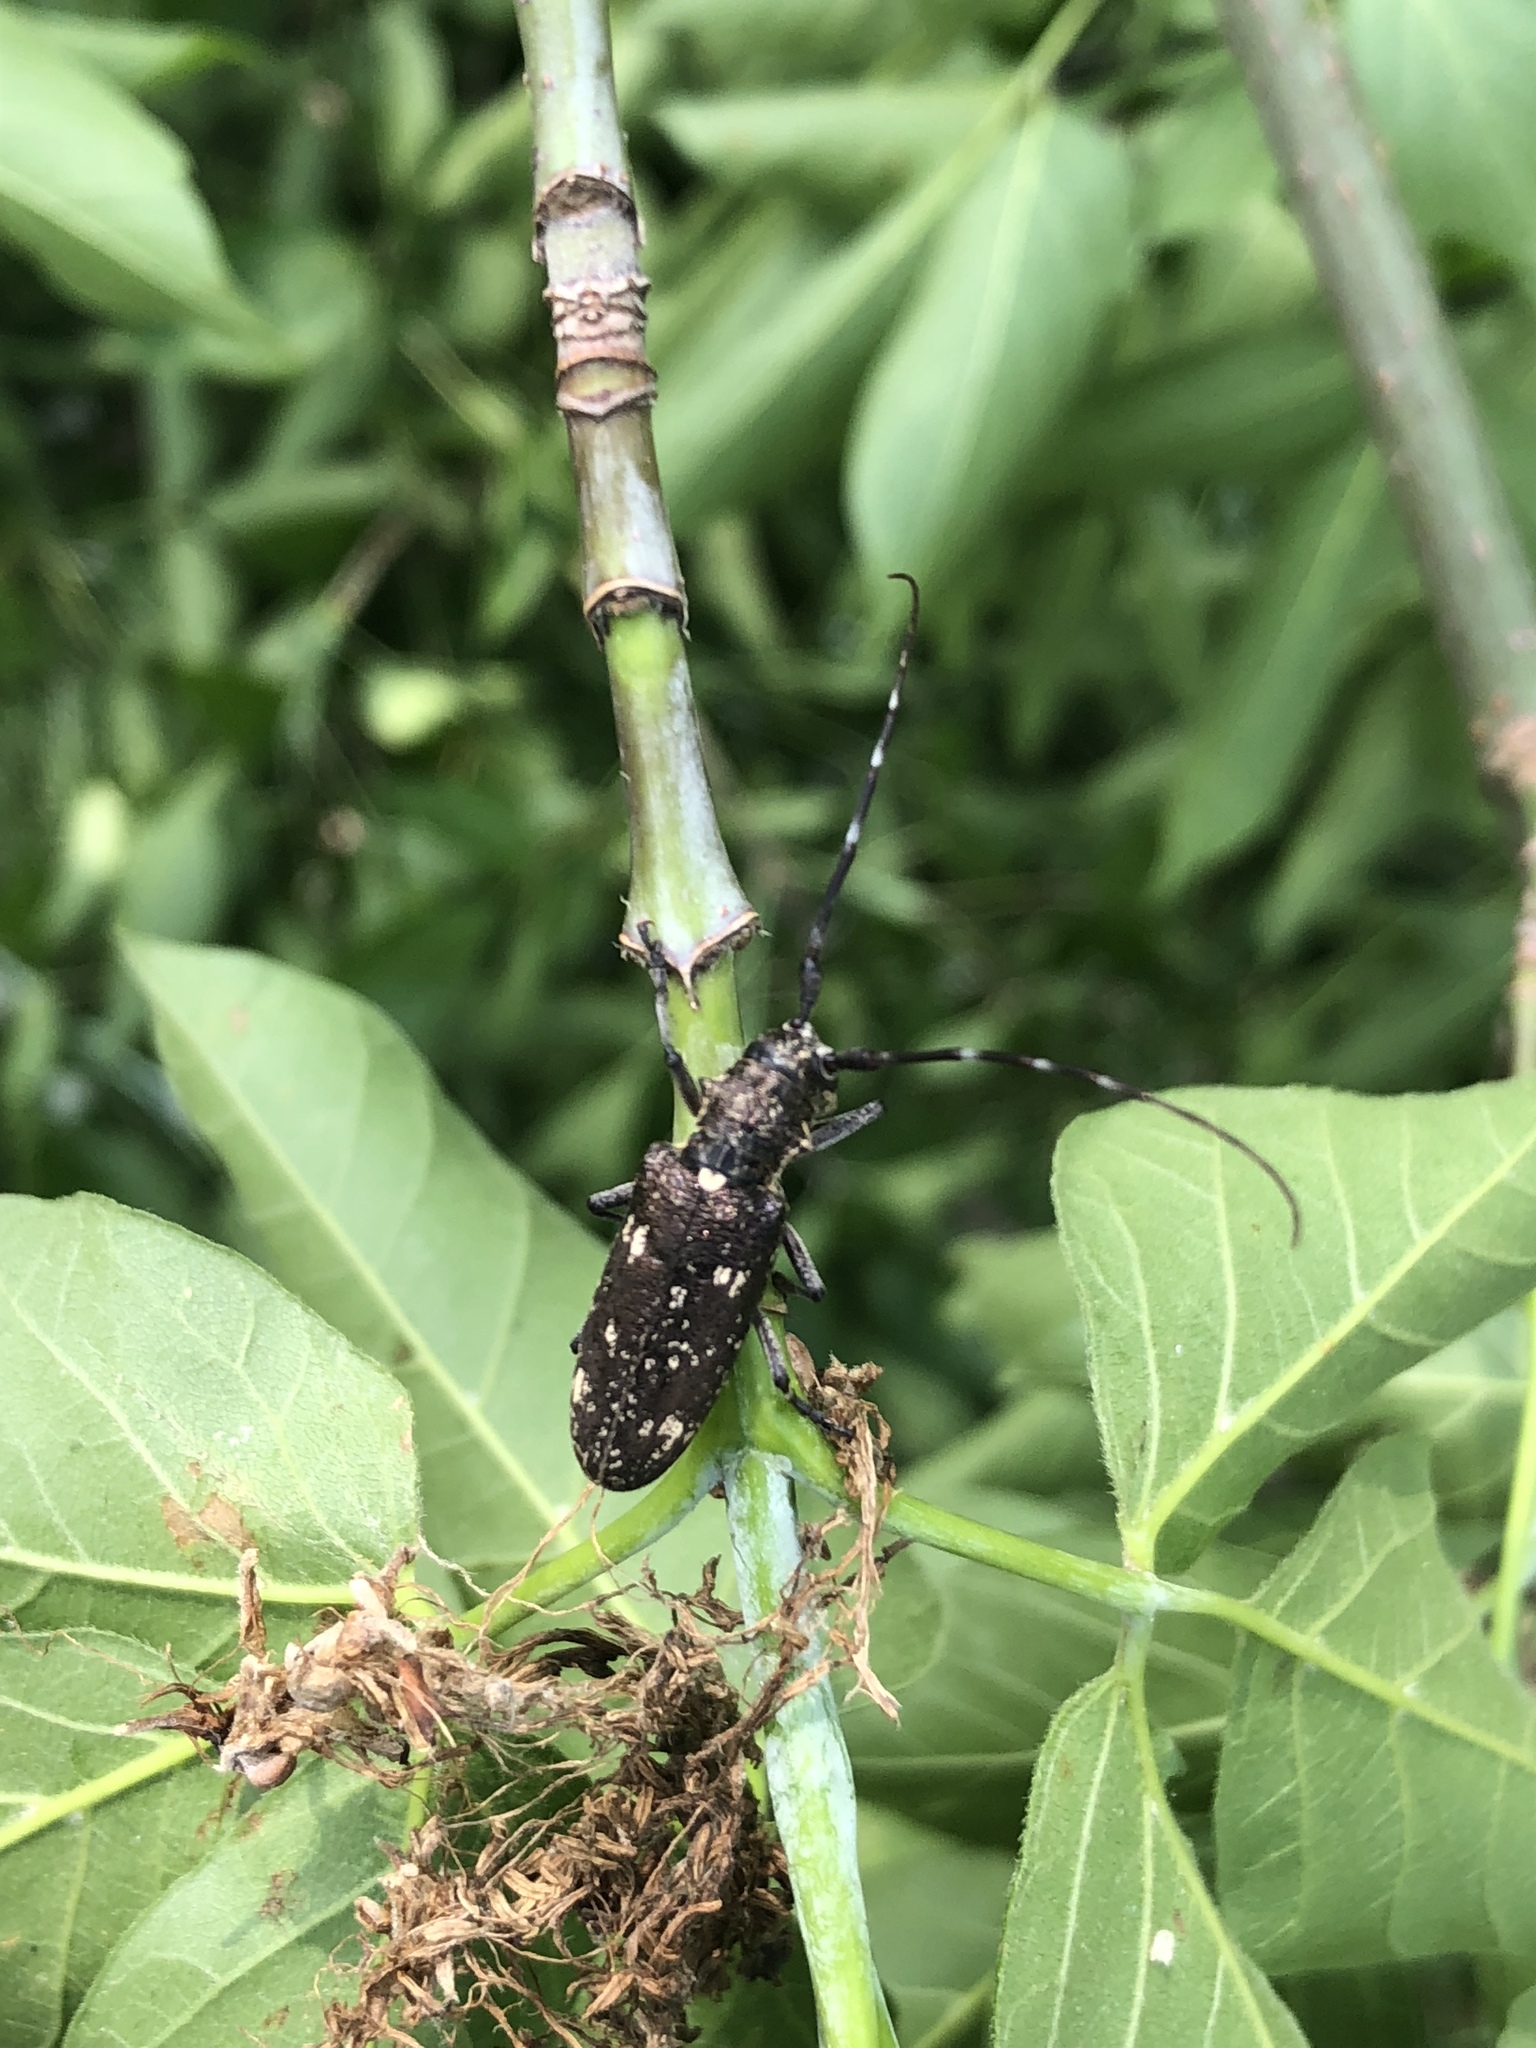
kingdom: Animalia
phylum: Arthropoda
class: Insecta
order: Coleoptera
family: Cerambycidae
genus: Monochamus
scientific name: Monochamus scutellatus
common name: White-spotted sawyer beetle
